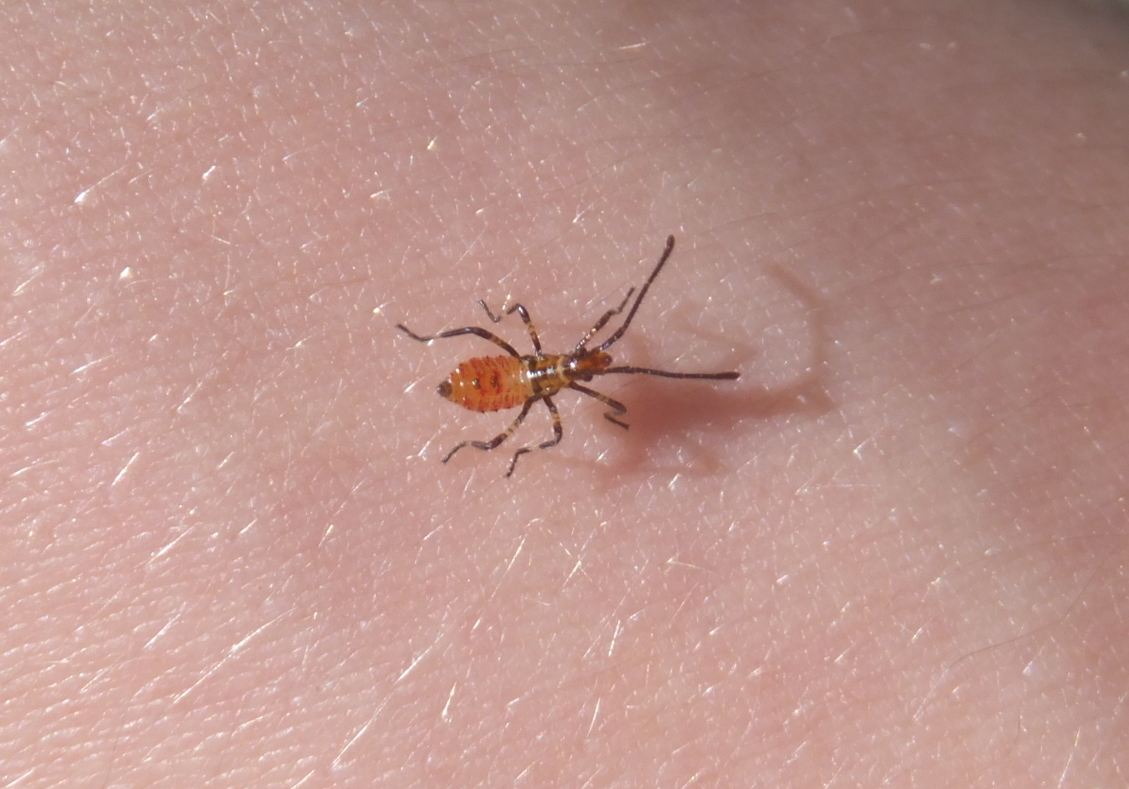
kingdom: Animalia
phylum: Arthropoda
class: Insecta
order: Hemiptera
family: Coreidae
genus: Leptoglossus
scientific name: Leptoglossus occidentalis
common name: Western conifer-seed bug
